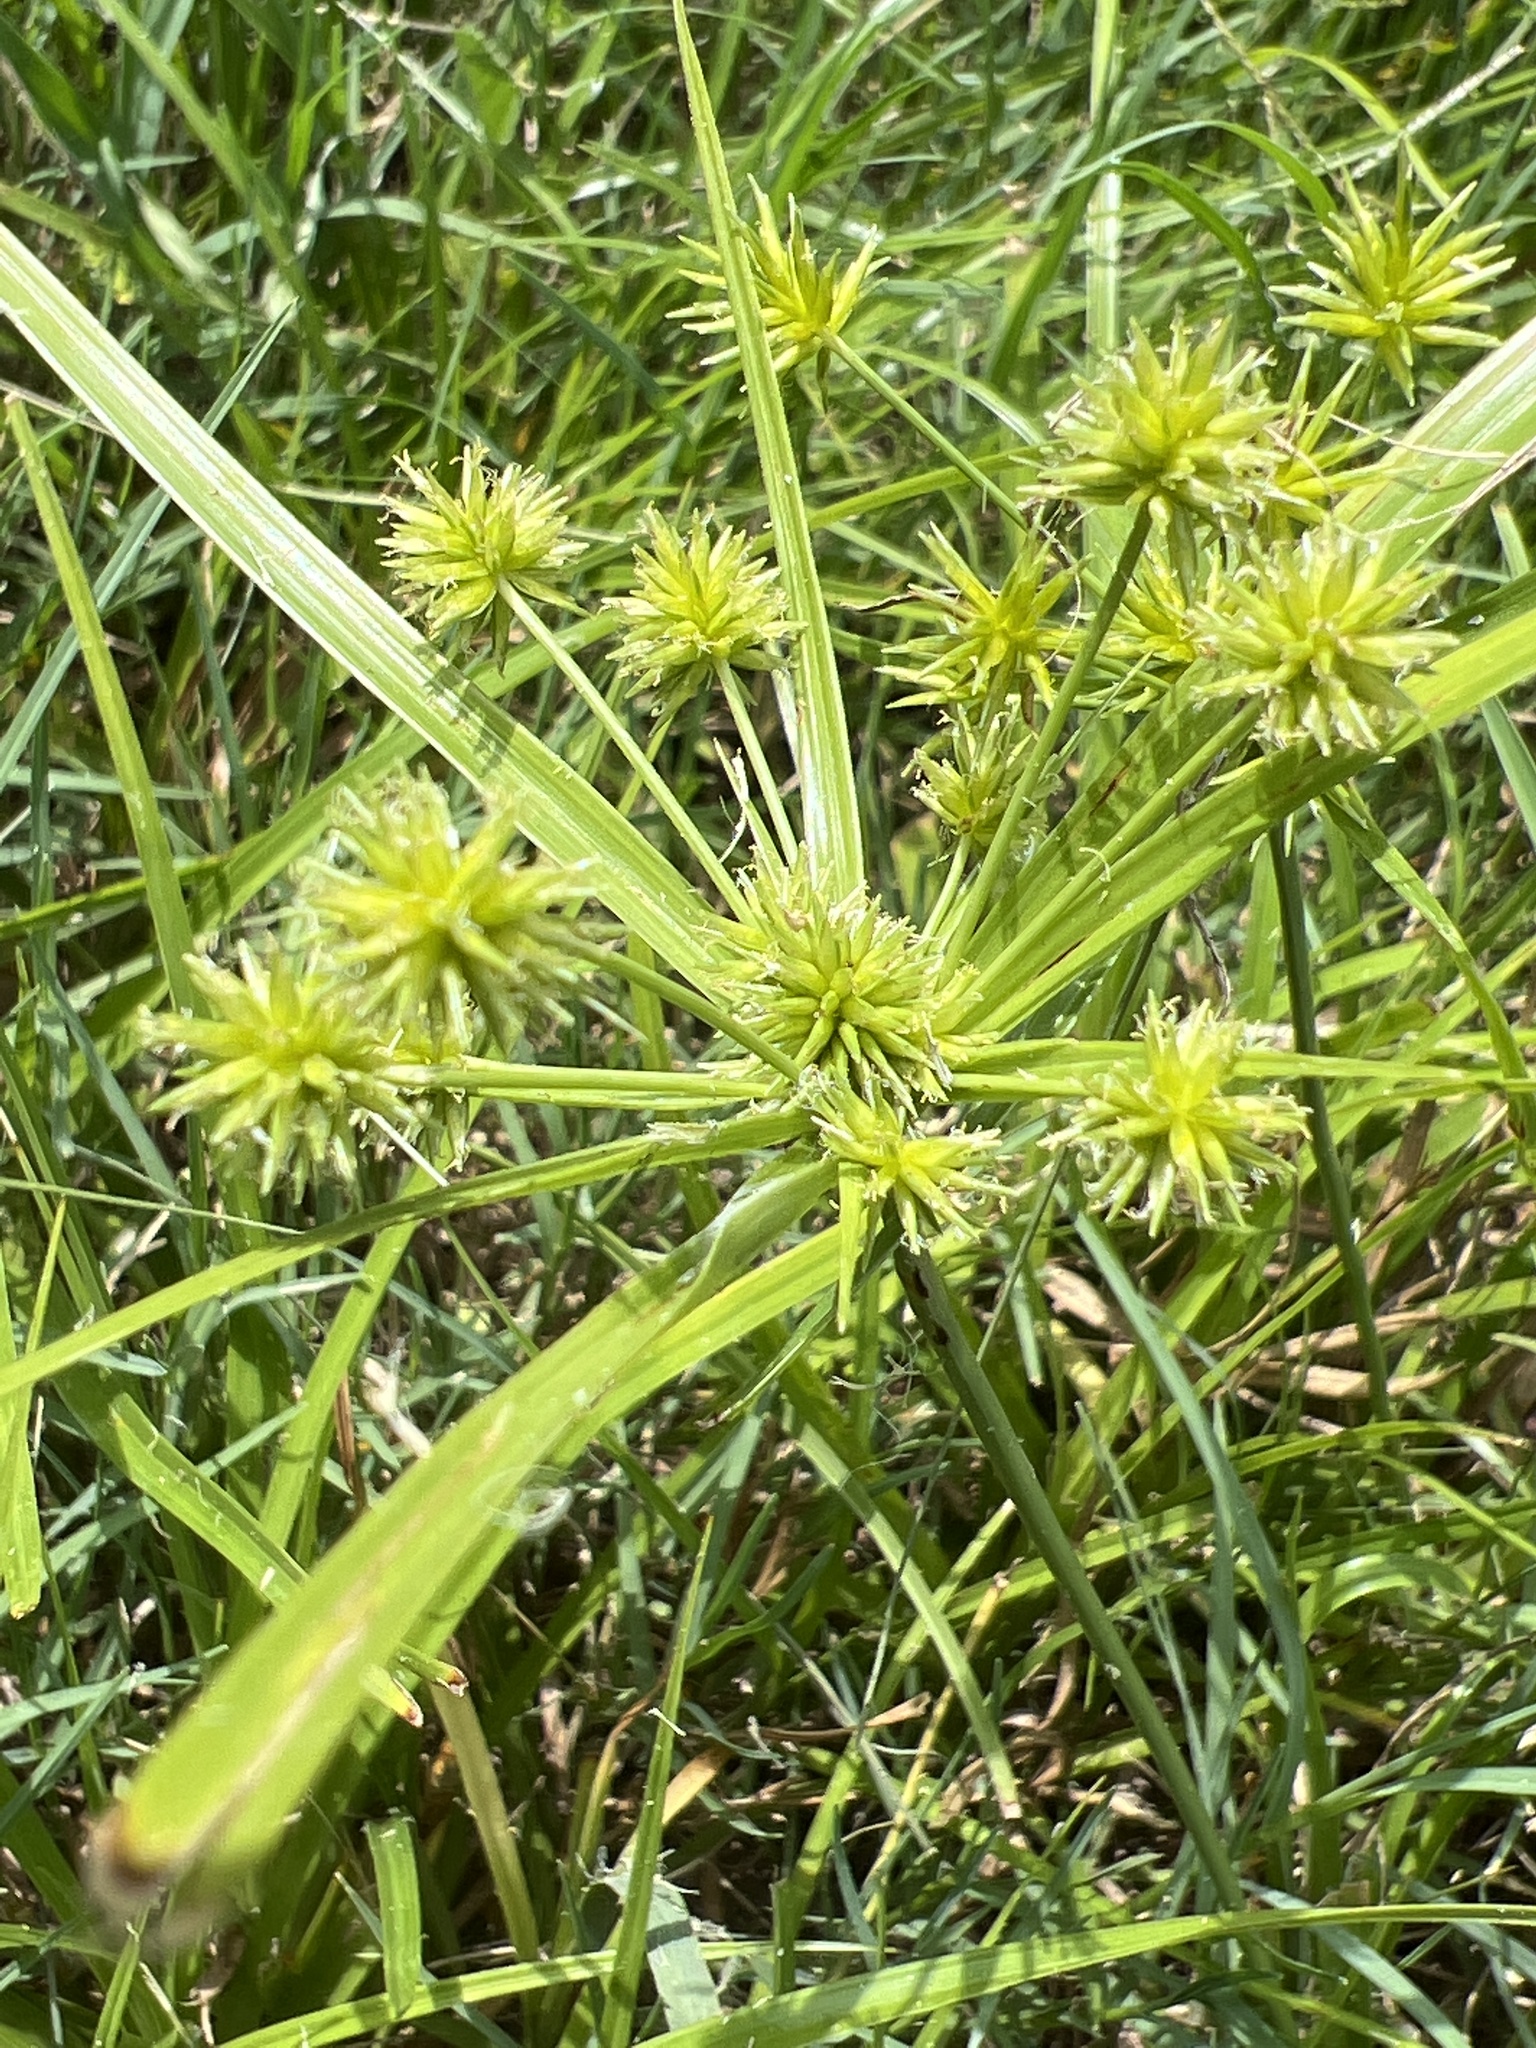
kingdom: Plantae
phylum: Tracheophyta
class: Liliopsida
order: Poales
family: Cyperaceae
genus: Cyperus
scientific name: Cyperus croceus
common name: Baldwin's flatsedge
